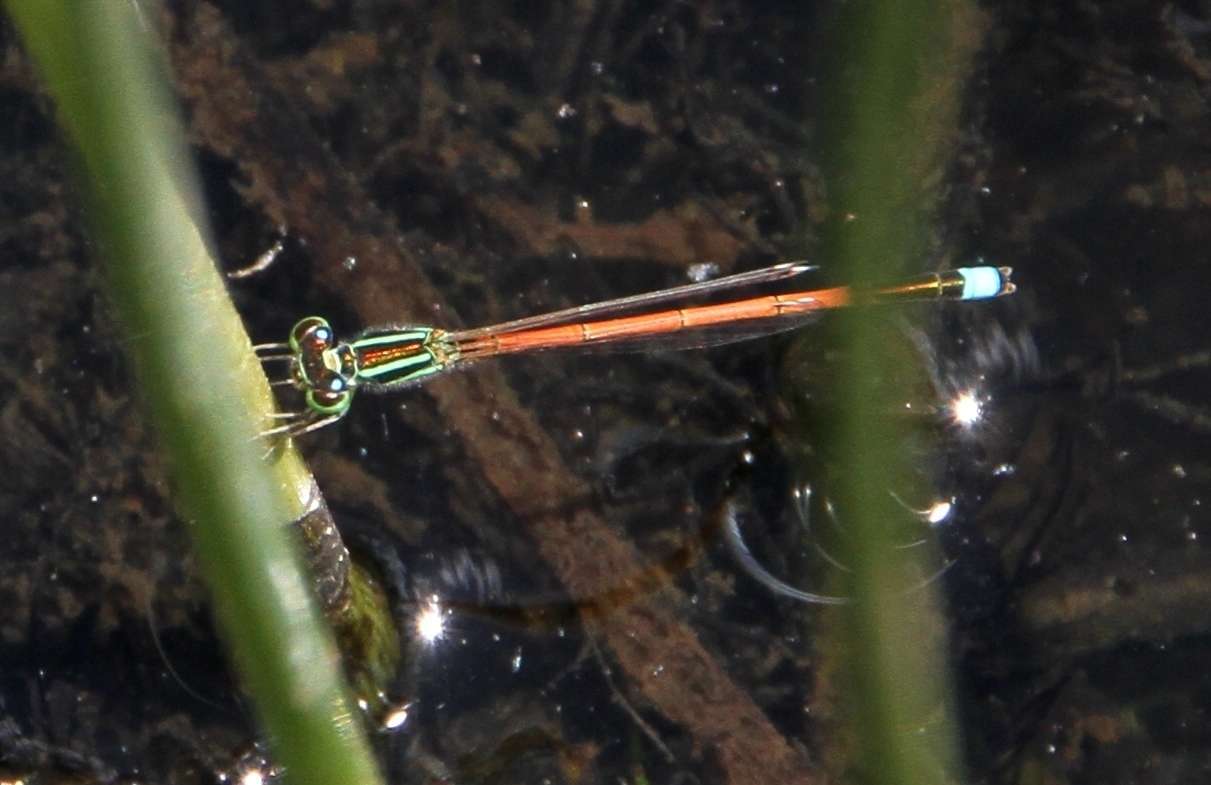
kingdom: Animalia
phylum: Arthropoda
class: Insecta
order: Odonata
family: Coenagrionidae
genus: Ischnura
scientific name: Ischnura aurora
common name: Gossamer damselfly
